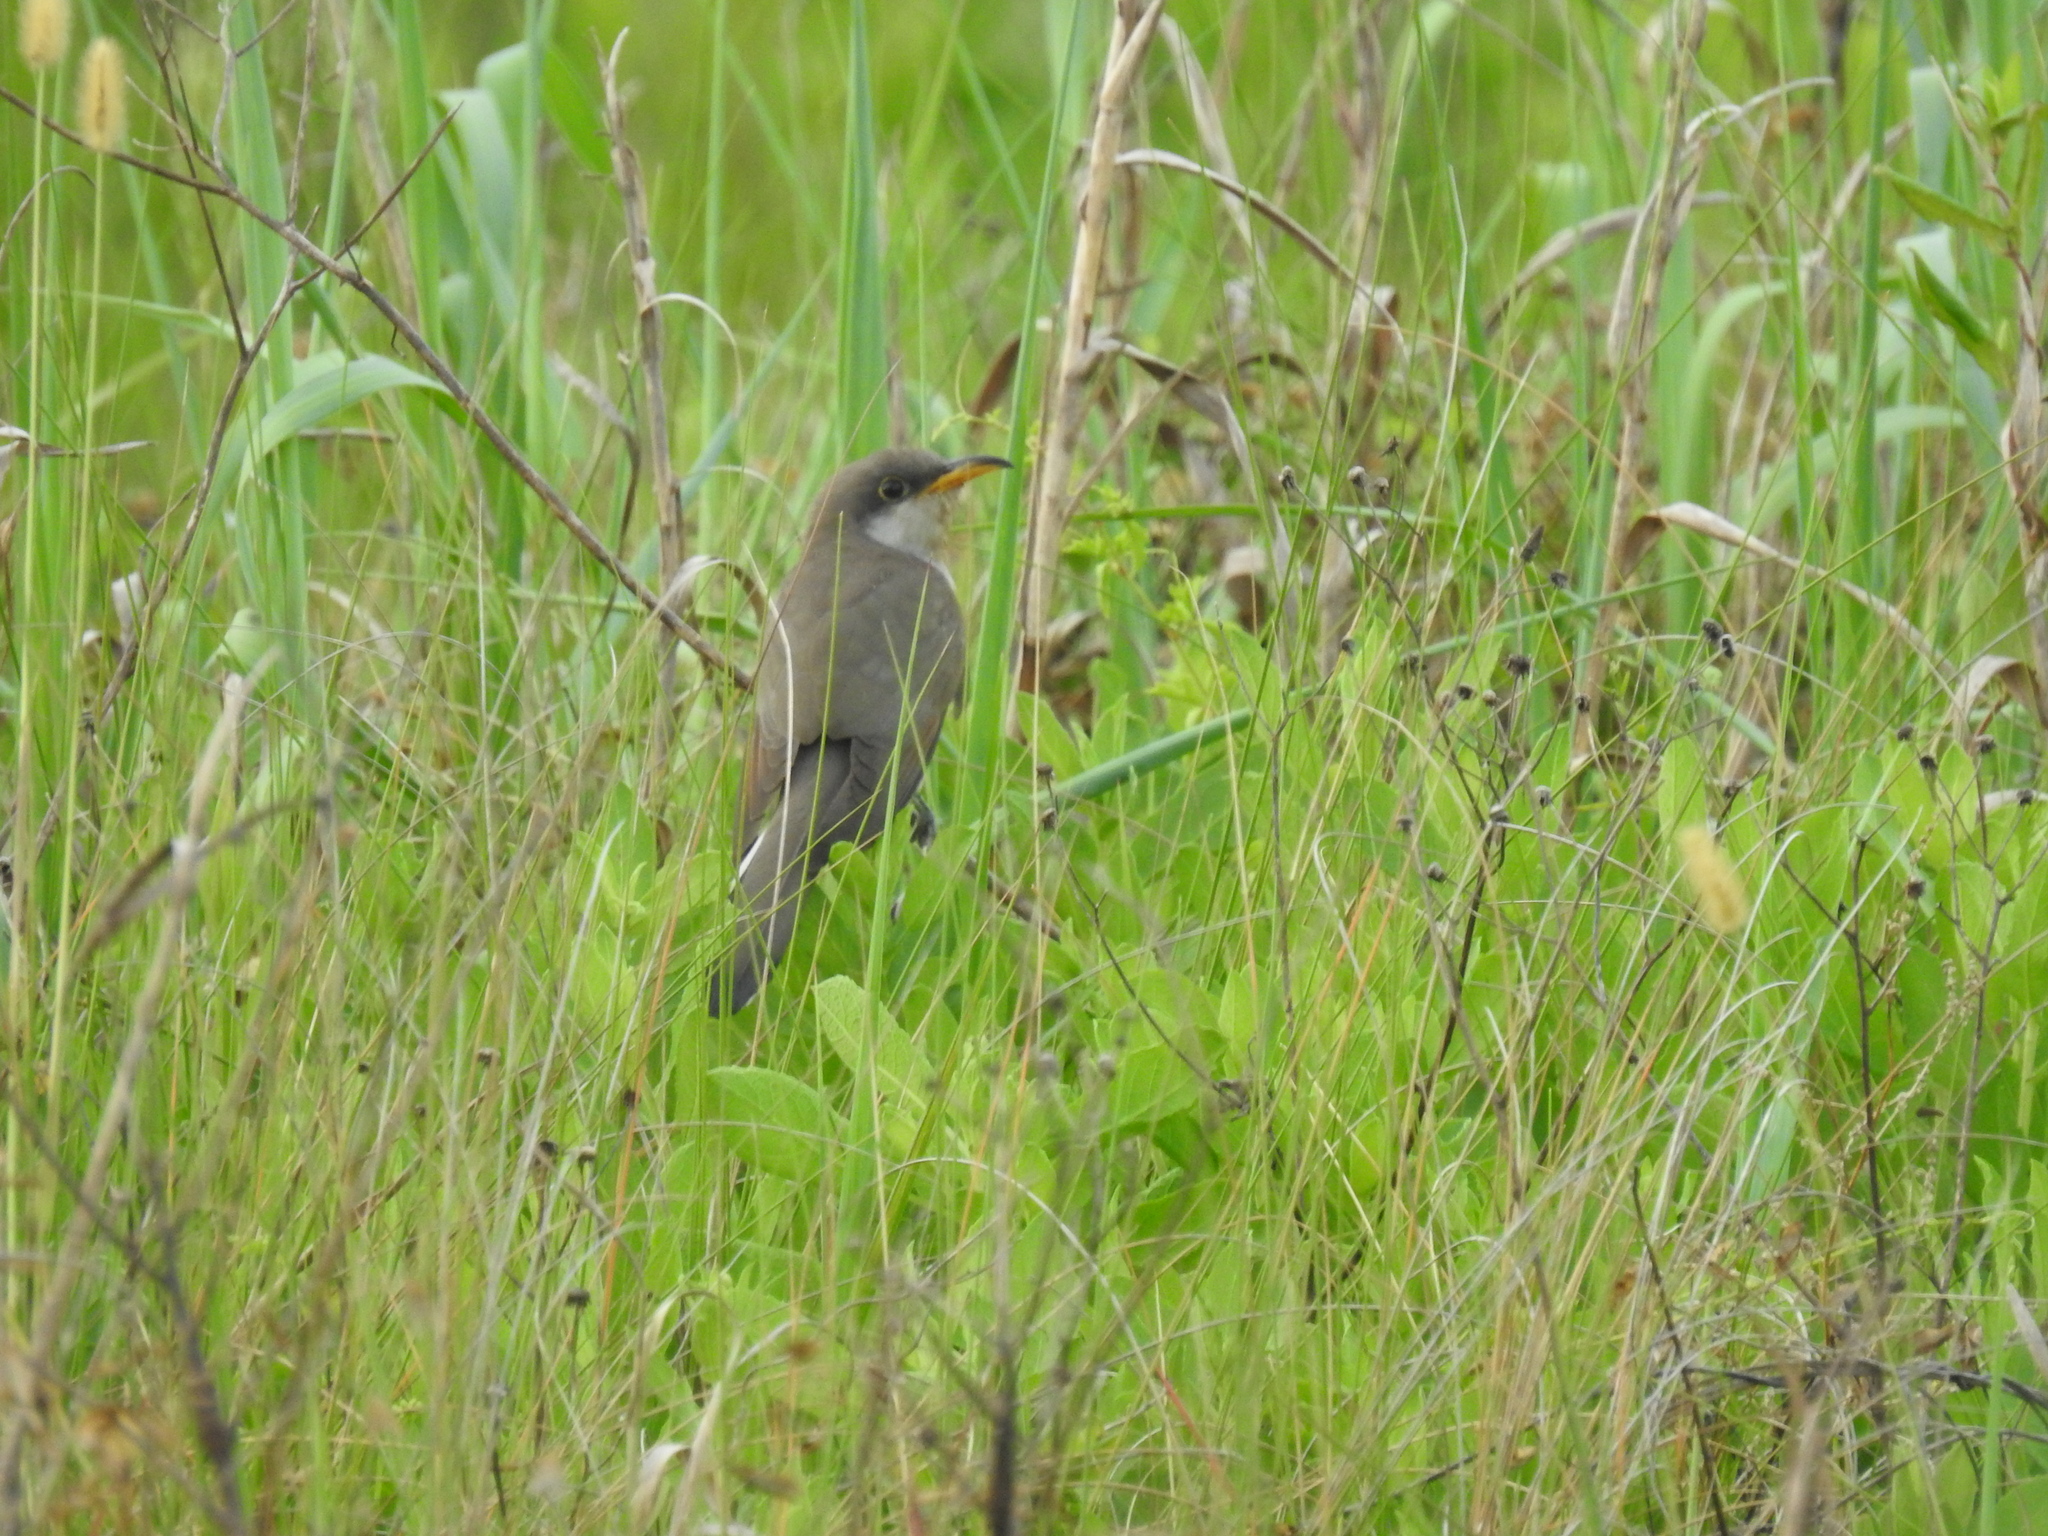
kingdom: Animalia
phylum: Chordata
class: Aves
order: Cuculiformes
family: Cuculidae
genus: Coccyzus
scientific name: Coccyzus americanus
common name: Yellow-billed cuckoo
